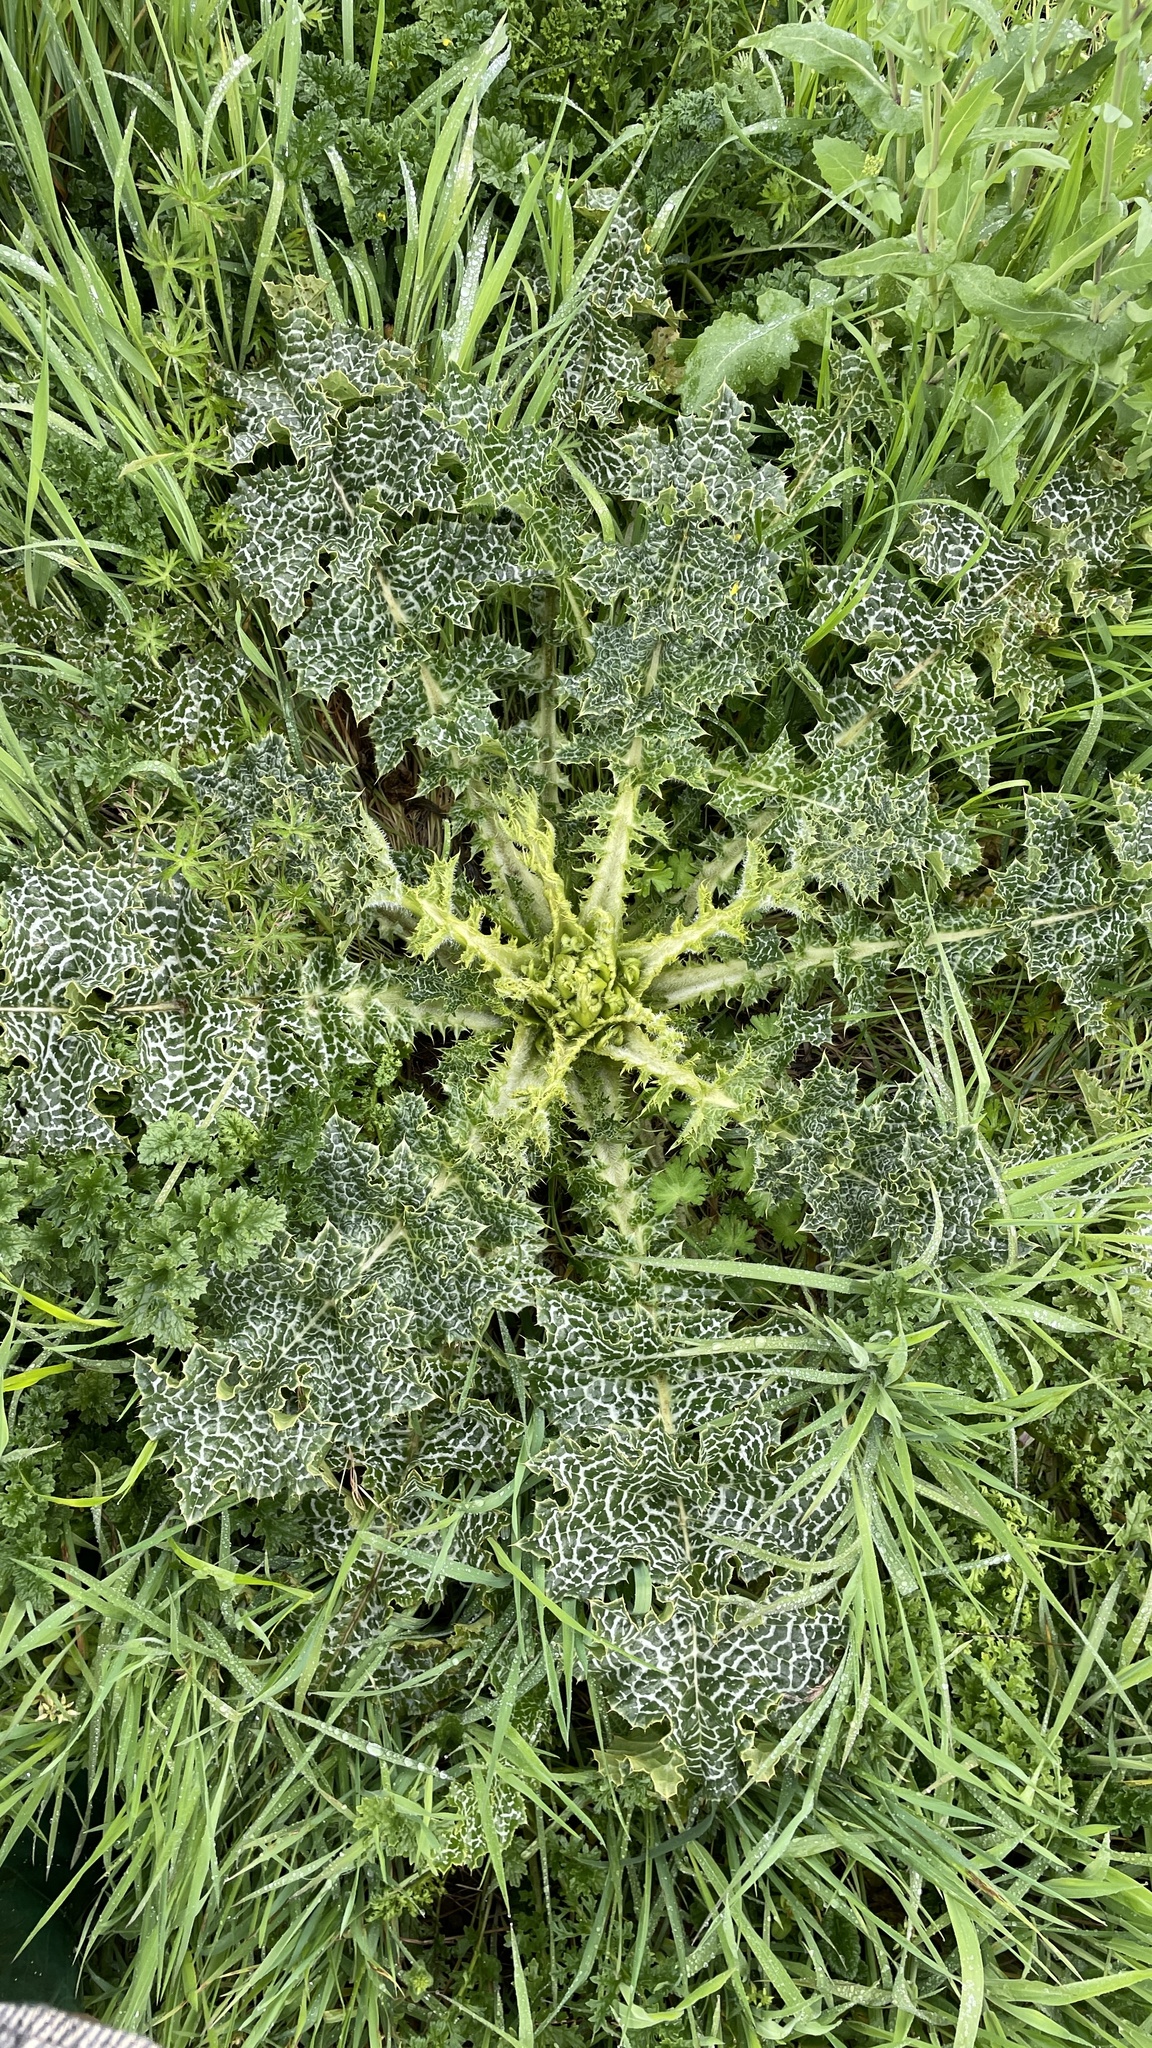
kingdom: Plantae
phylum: Tracheophyta
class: Magnoliopsida
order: Asterales
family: Asteraceae
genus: Silybum
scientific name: Silybum marianum
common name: Milk thistle
